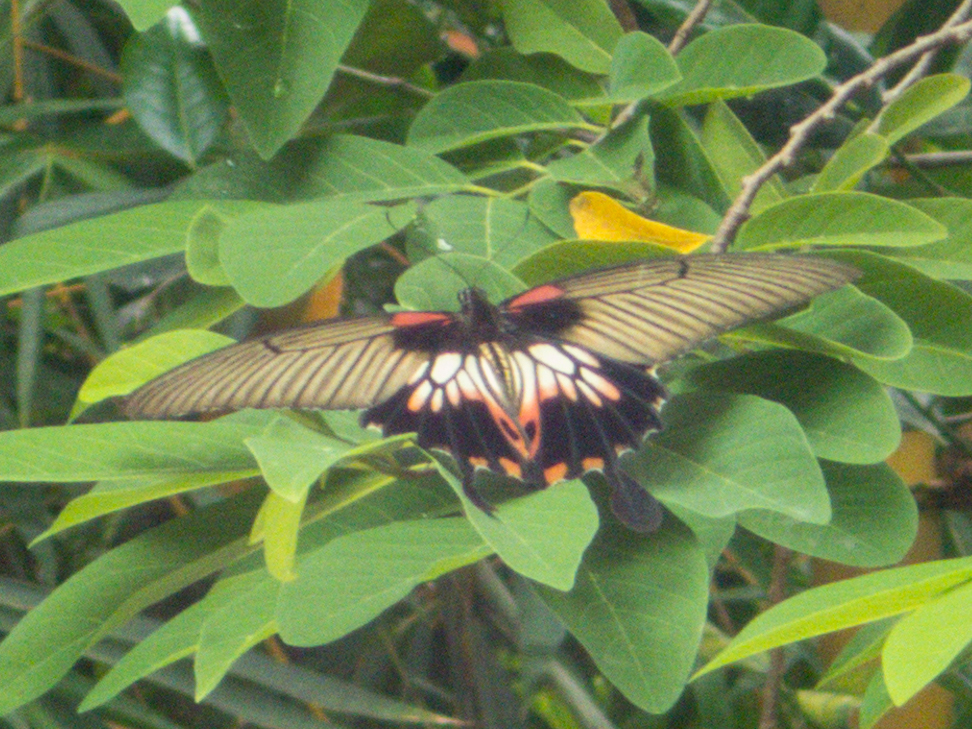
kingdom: Animalia
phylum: Arthropoda
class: Insecta
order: Lepidoptera
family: Papilionidae
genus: Papilio
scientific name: Papilio memnon
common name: Great mormon
